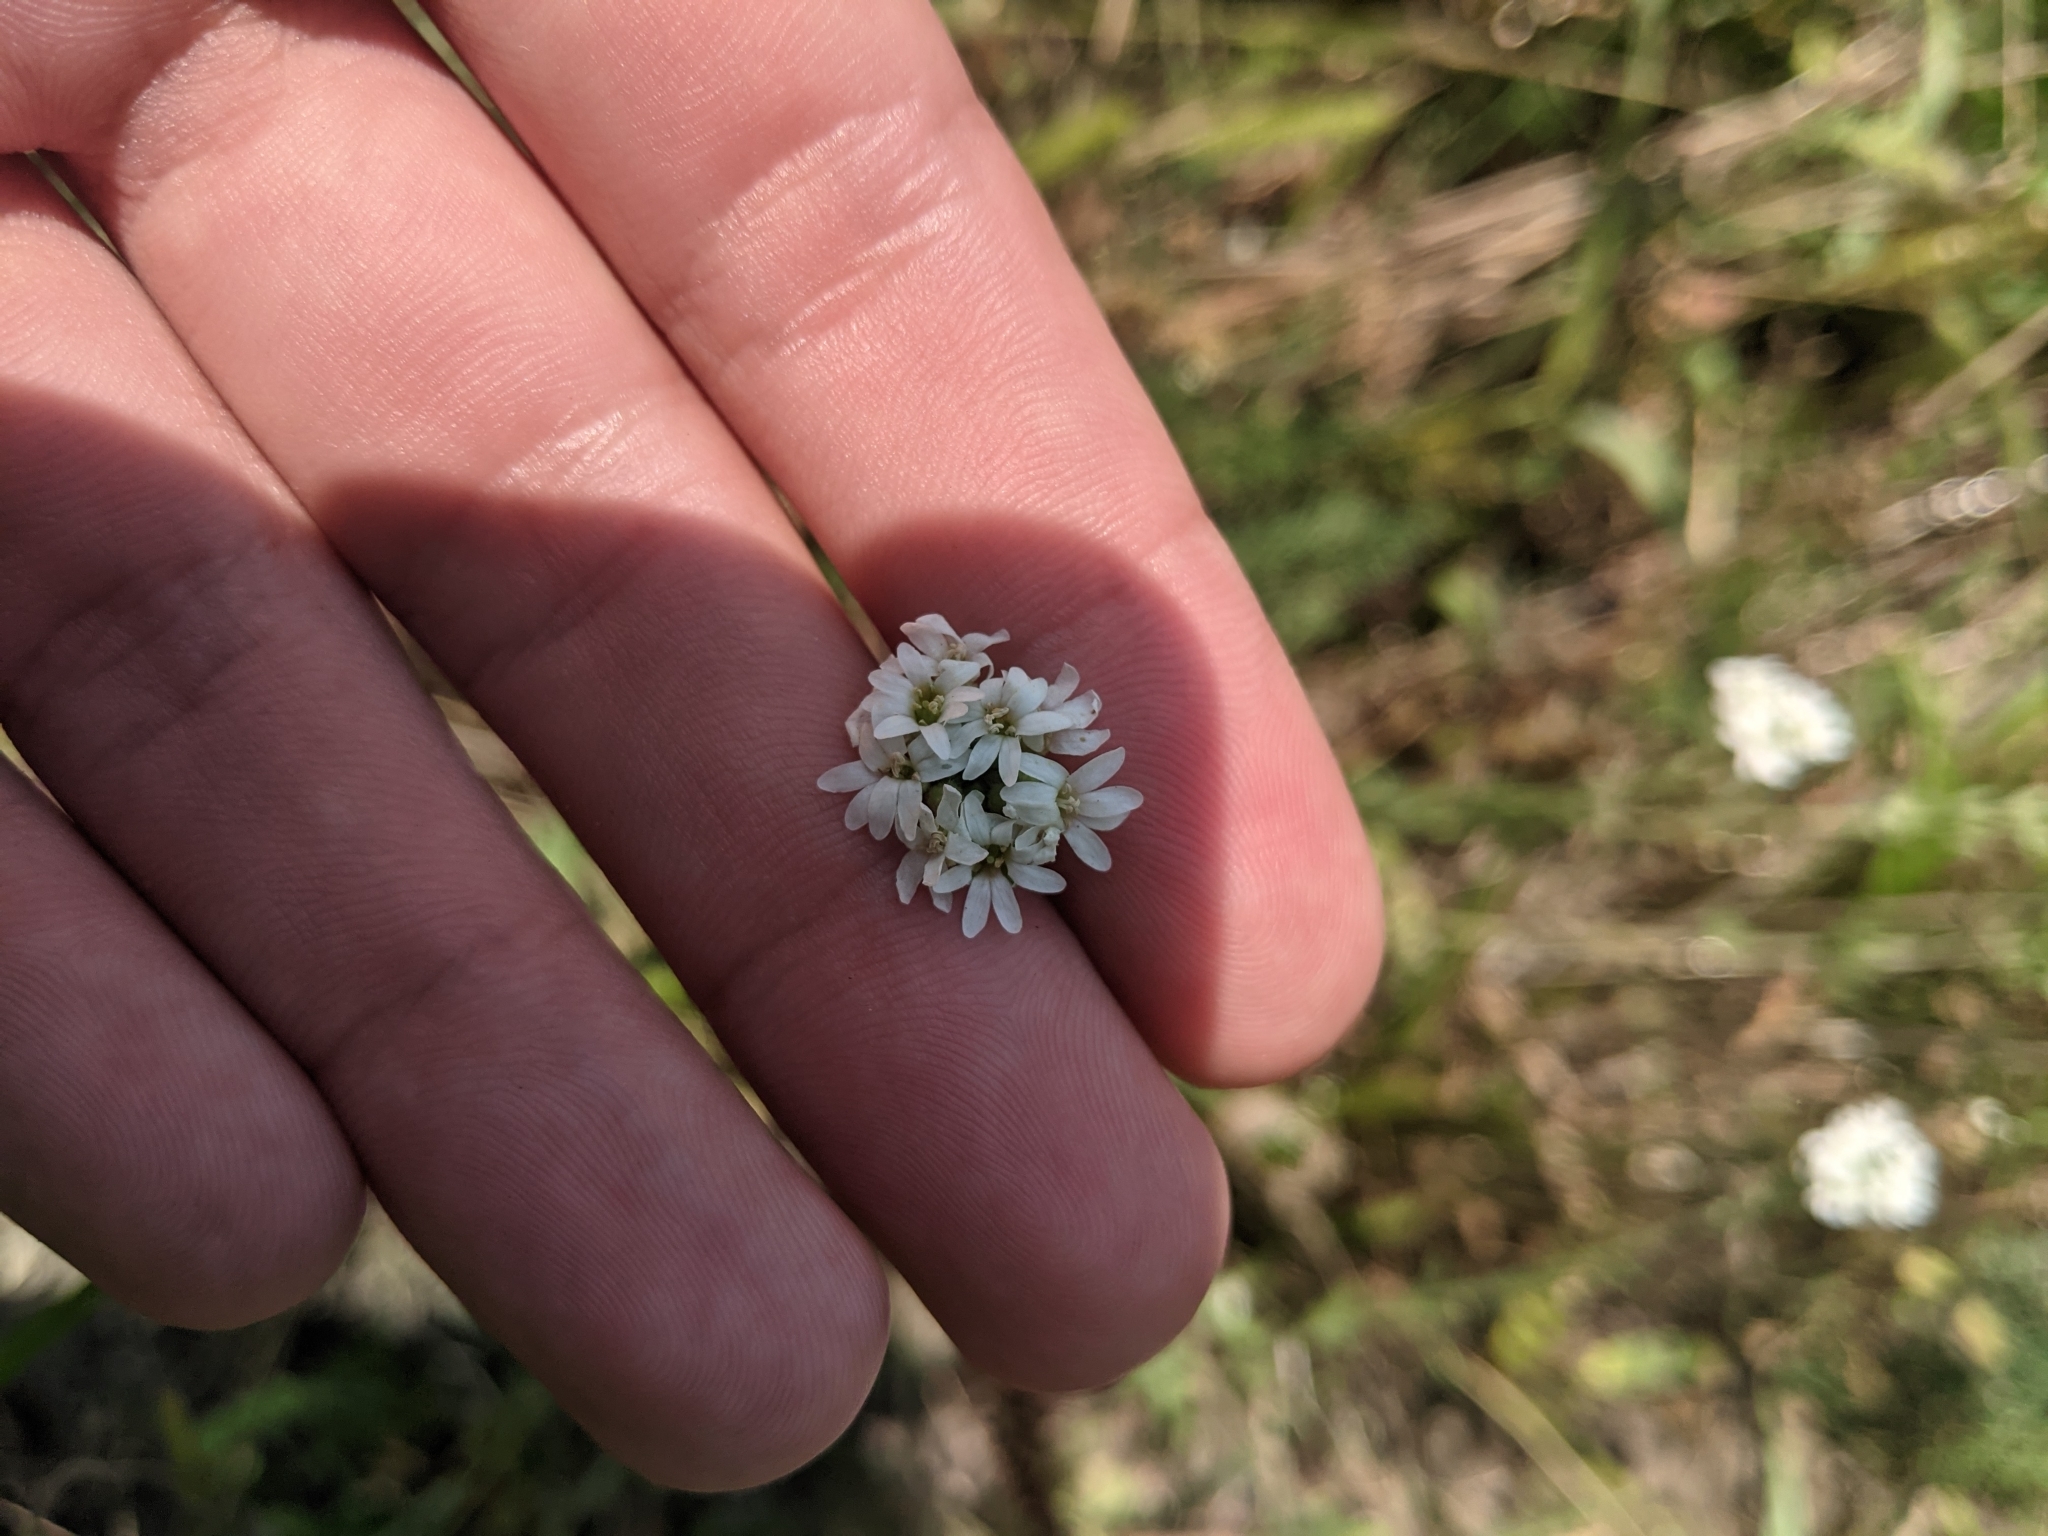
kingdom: Plantae
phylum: Tracheophyta
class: Magnoliopsida
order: Brassicales
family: Brassicaceae
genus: Berteroa
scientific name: Berteroa incana
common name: Hoary alison
